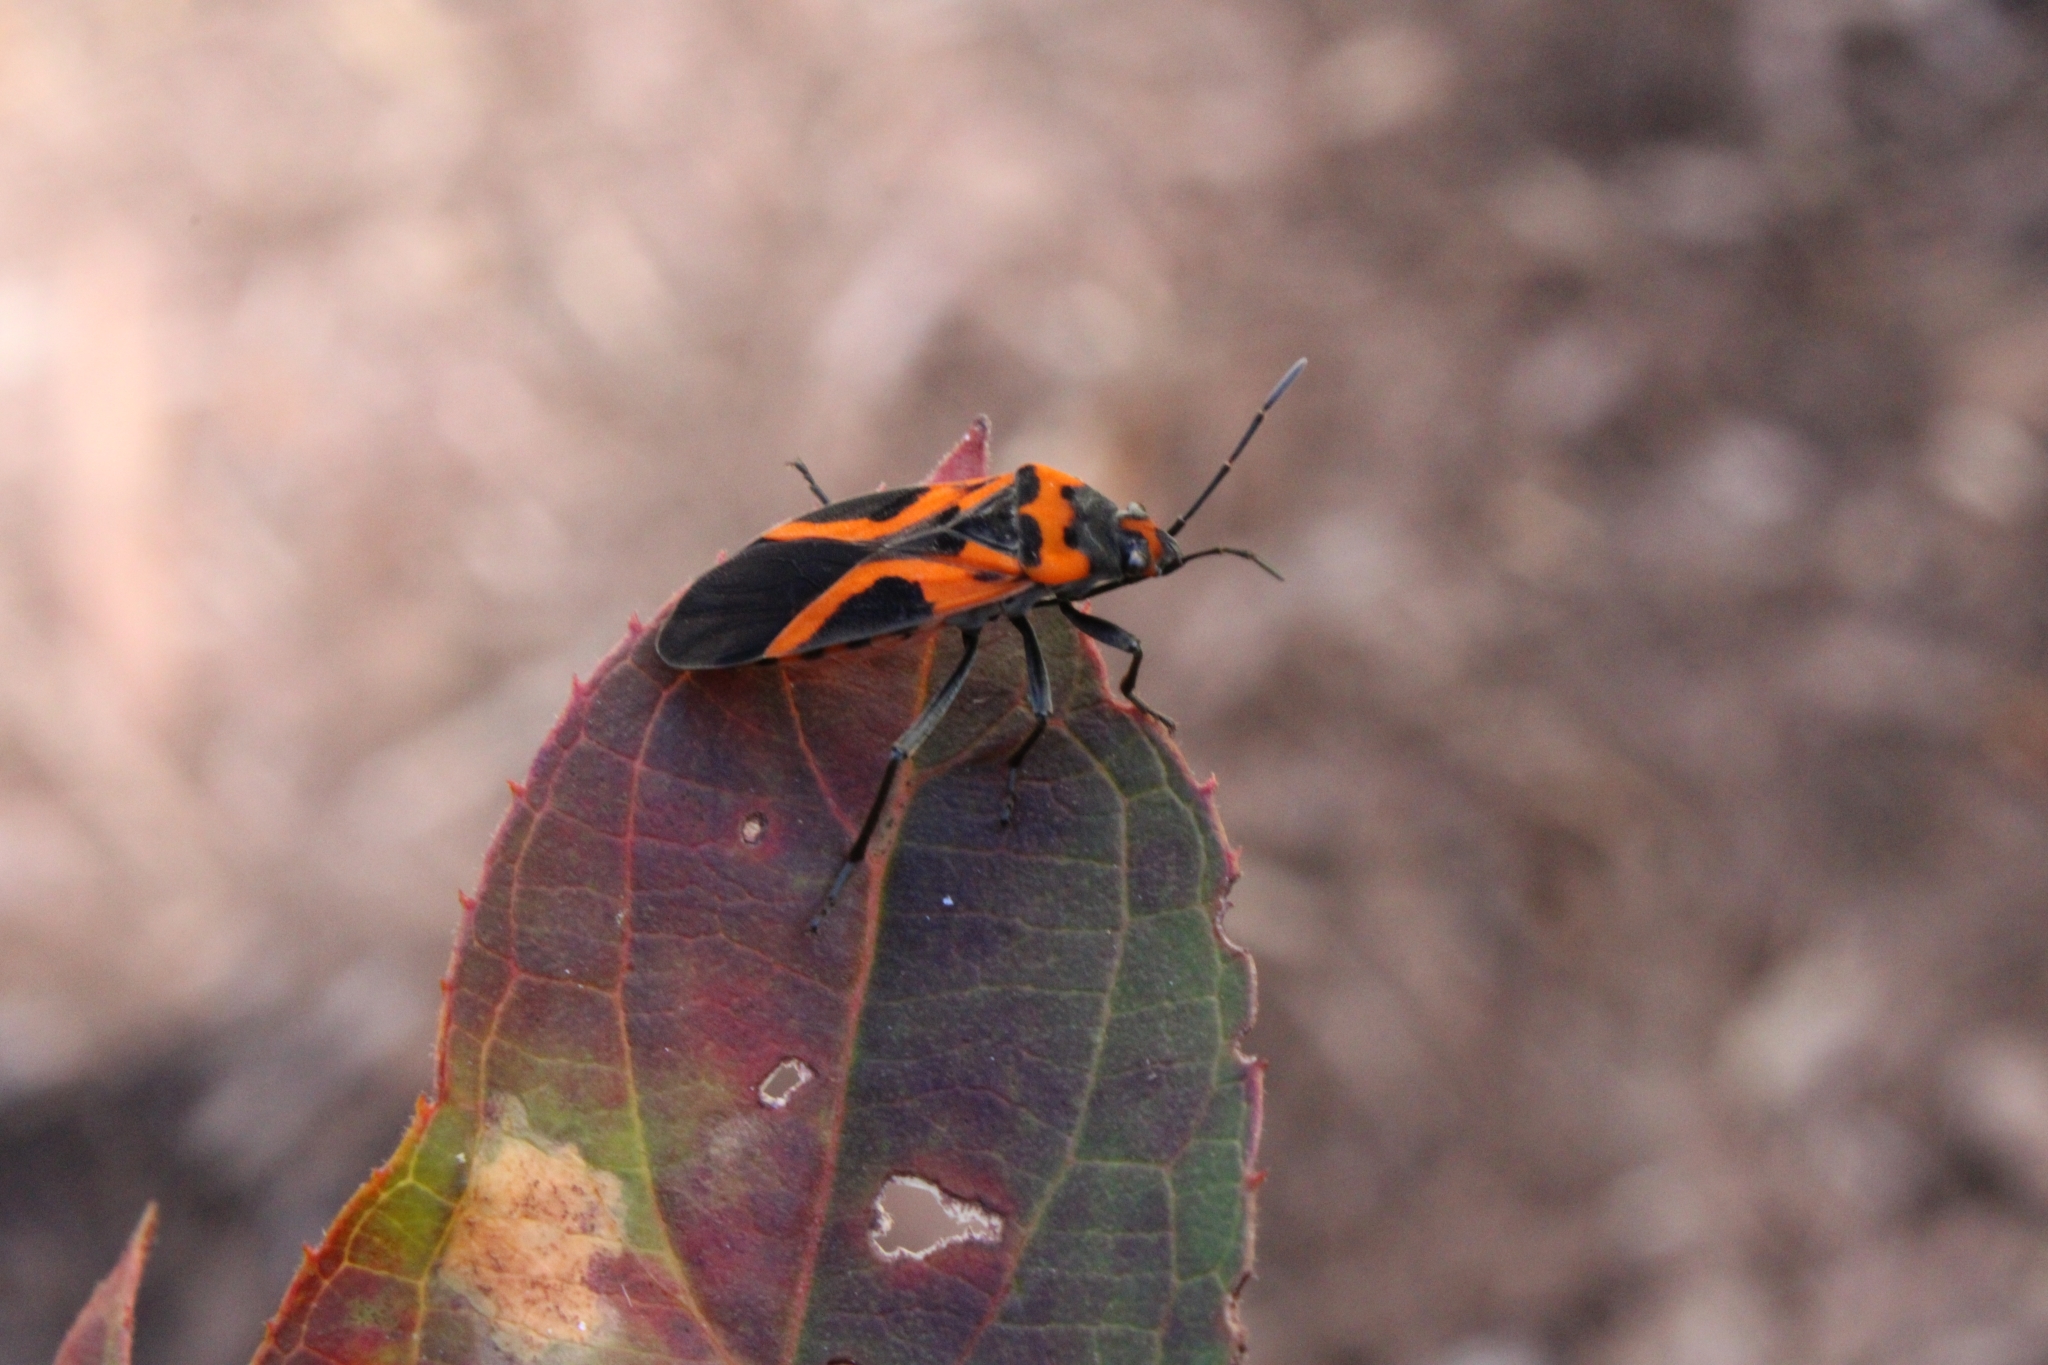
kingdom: Animalia
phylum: Arthropoda
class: Insecta
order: Hemiptera
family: Lygaeidae
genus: Lygaeus
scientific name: Lygaeus turcicus
